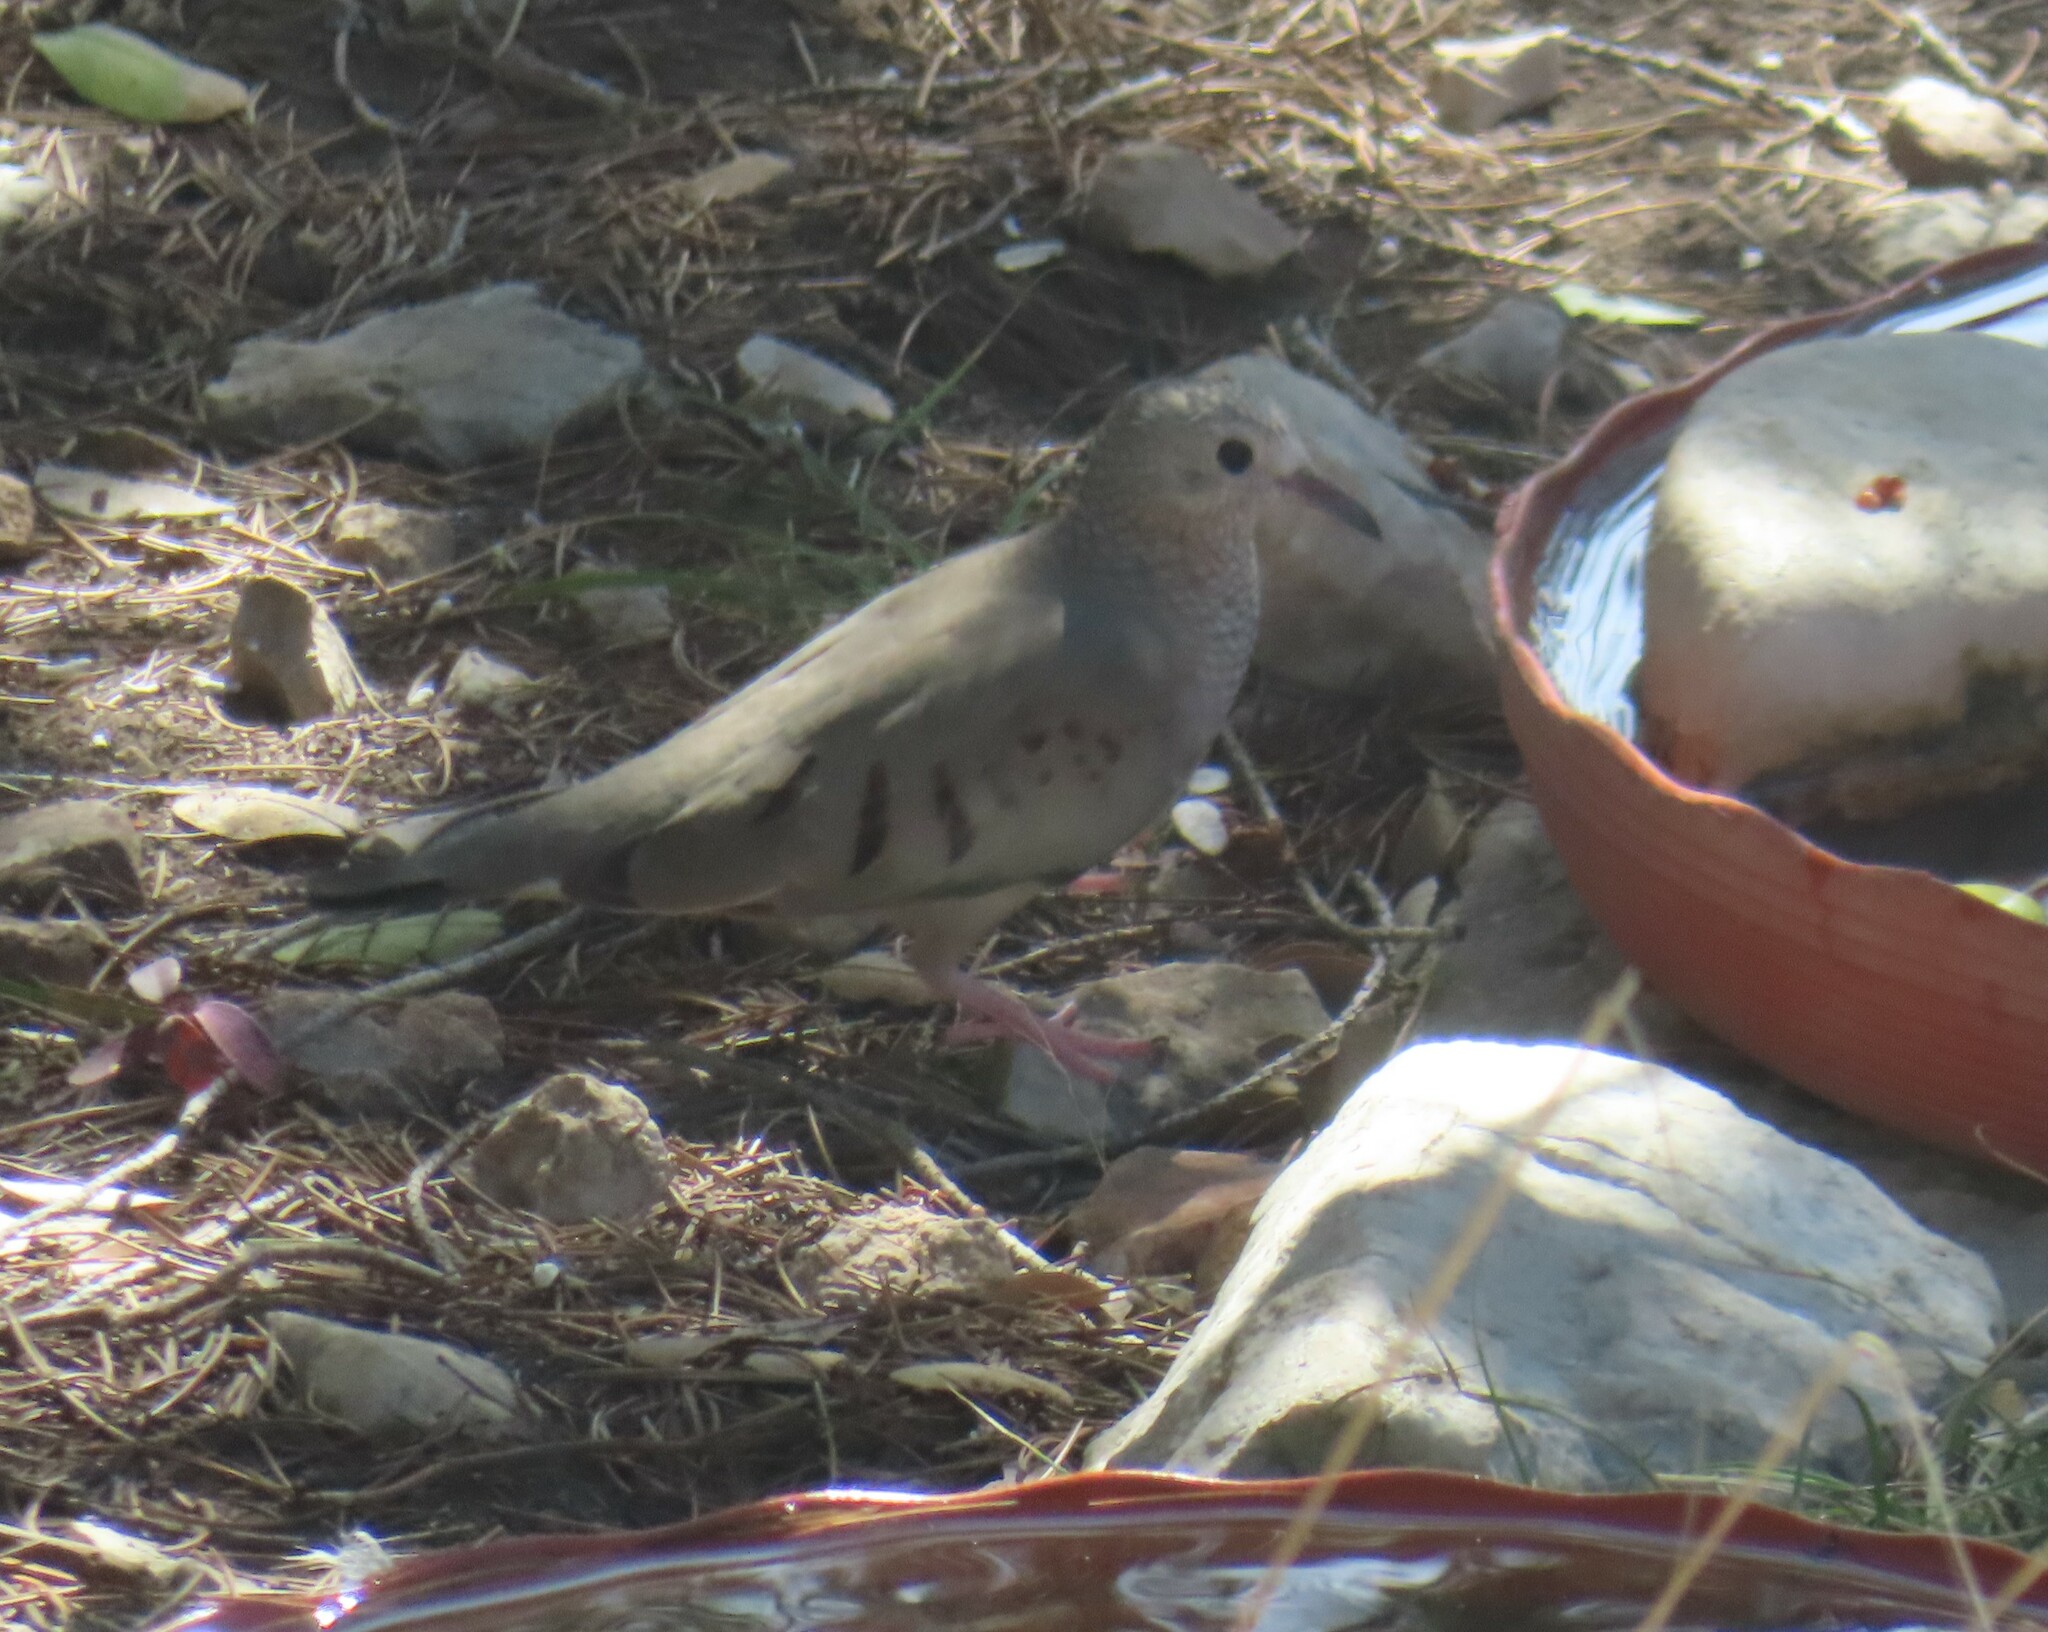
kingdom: Animalia
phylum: Chordata
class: Aves
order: Columbiformes
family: Columbidae
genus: Columbina
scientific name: Columbina passerina
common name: Common ground-dove
